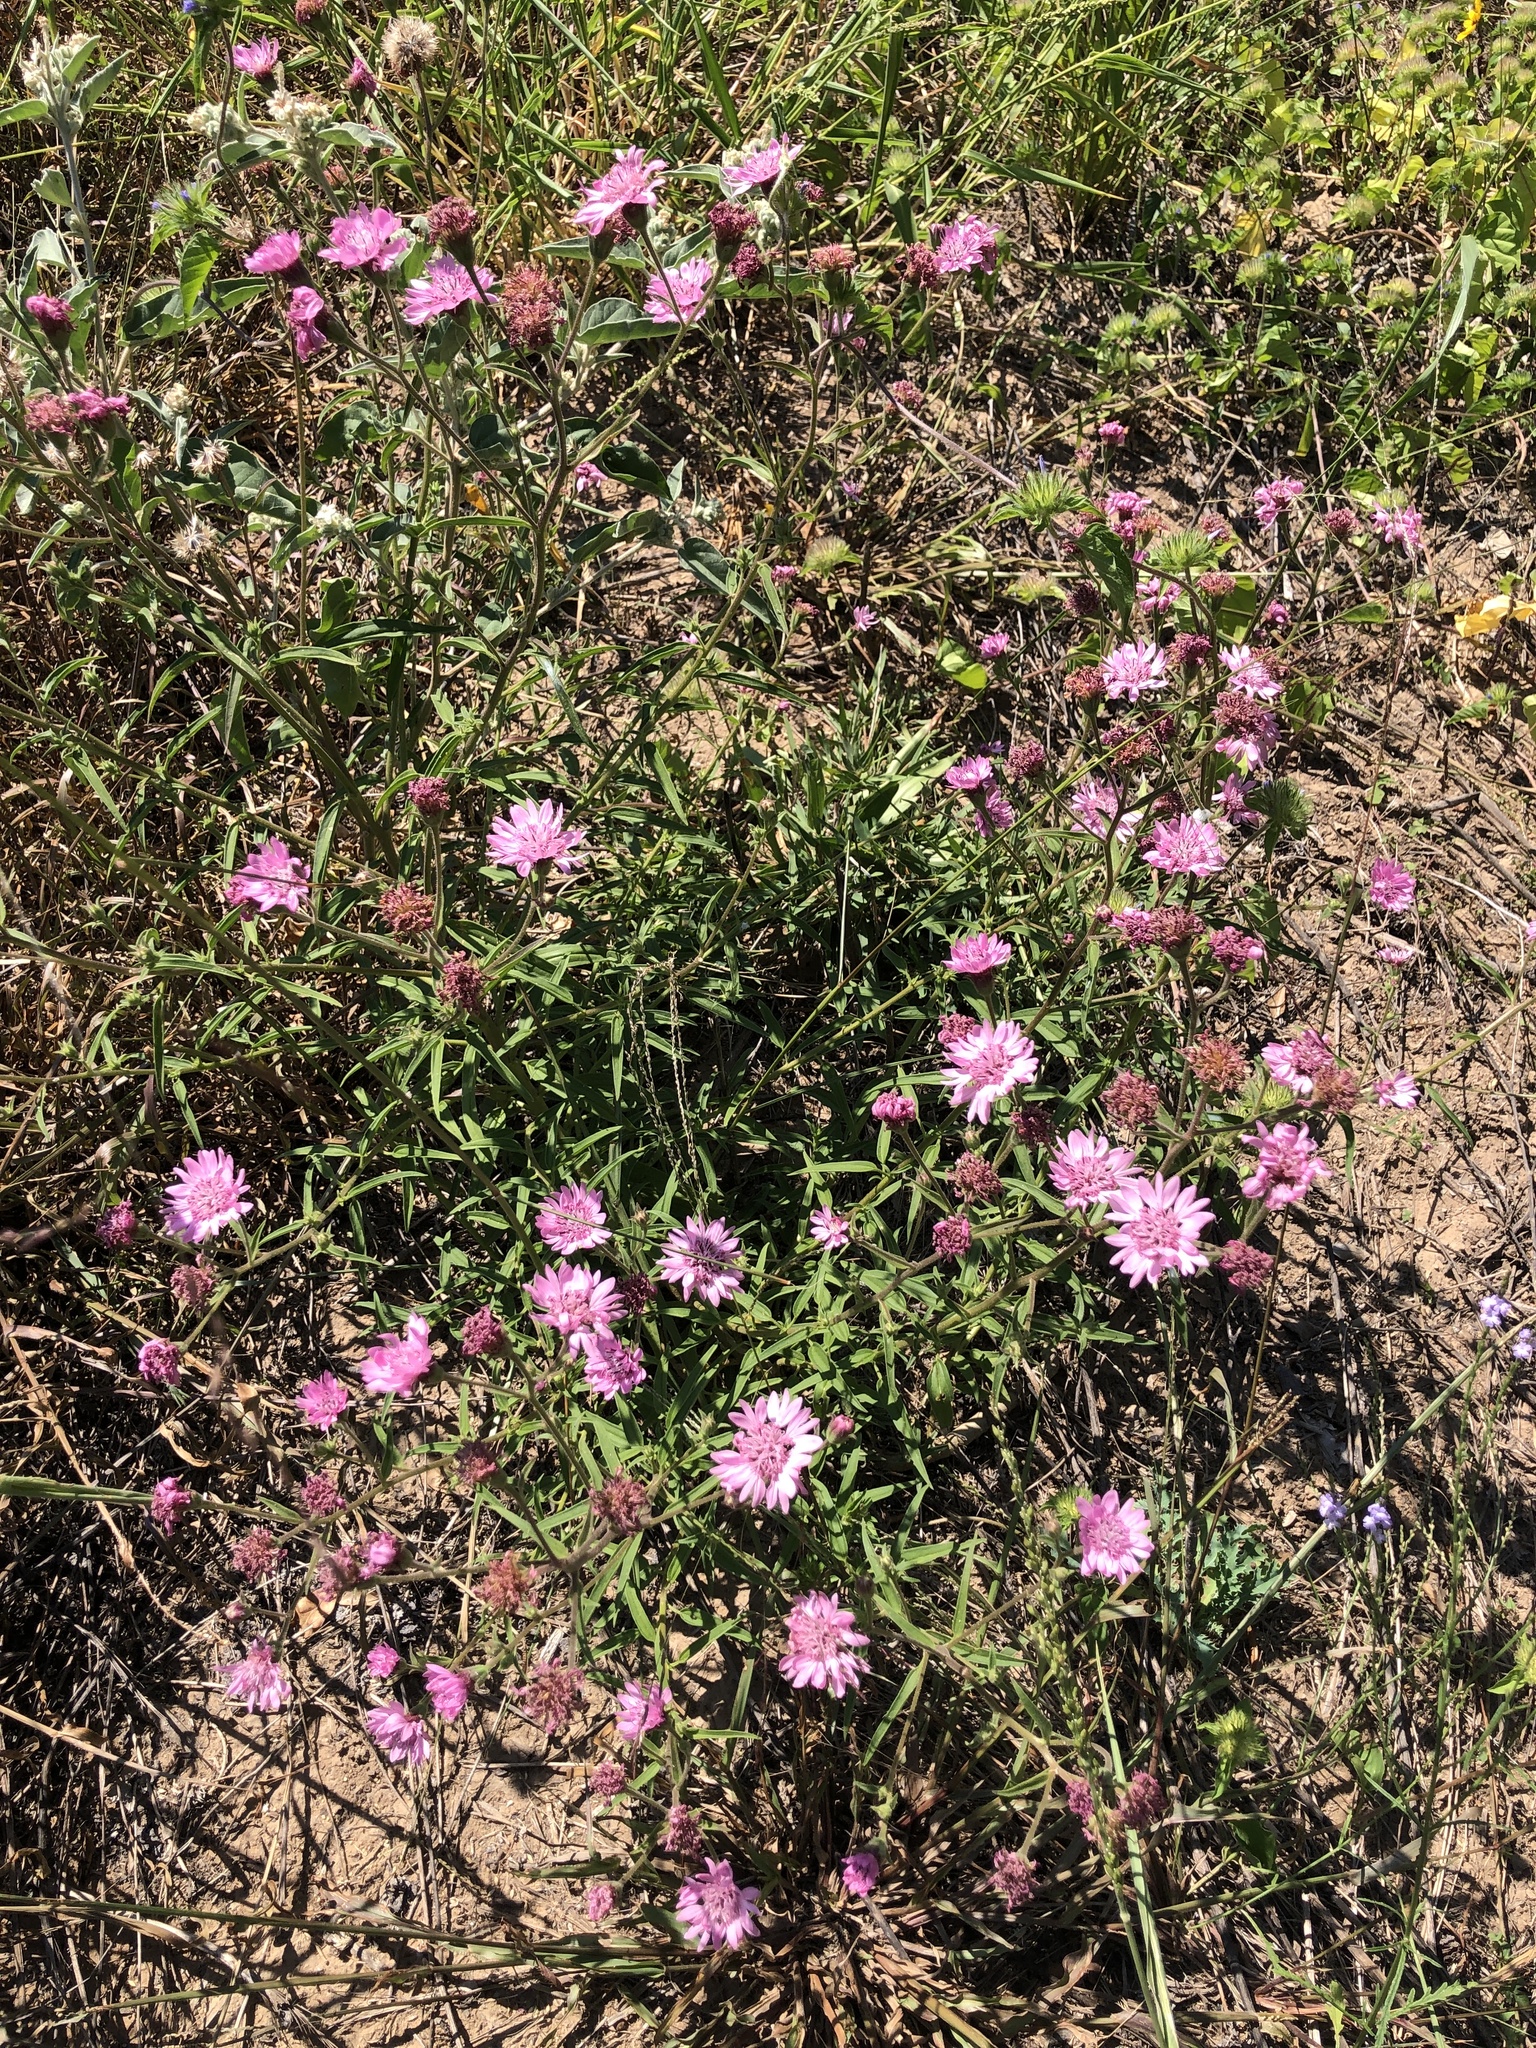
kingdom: Plantae
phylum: Tracheophyta
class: Magnoliopsida
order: Asterales
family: Asteraceae
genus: Palafoxia
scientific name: Palafoxia hookeriana
